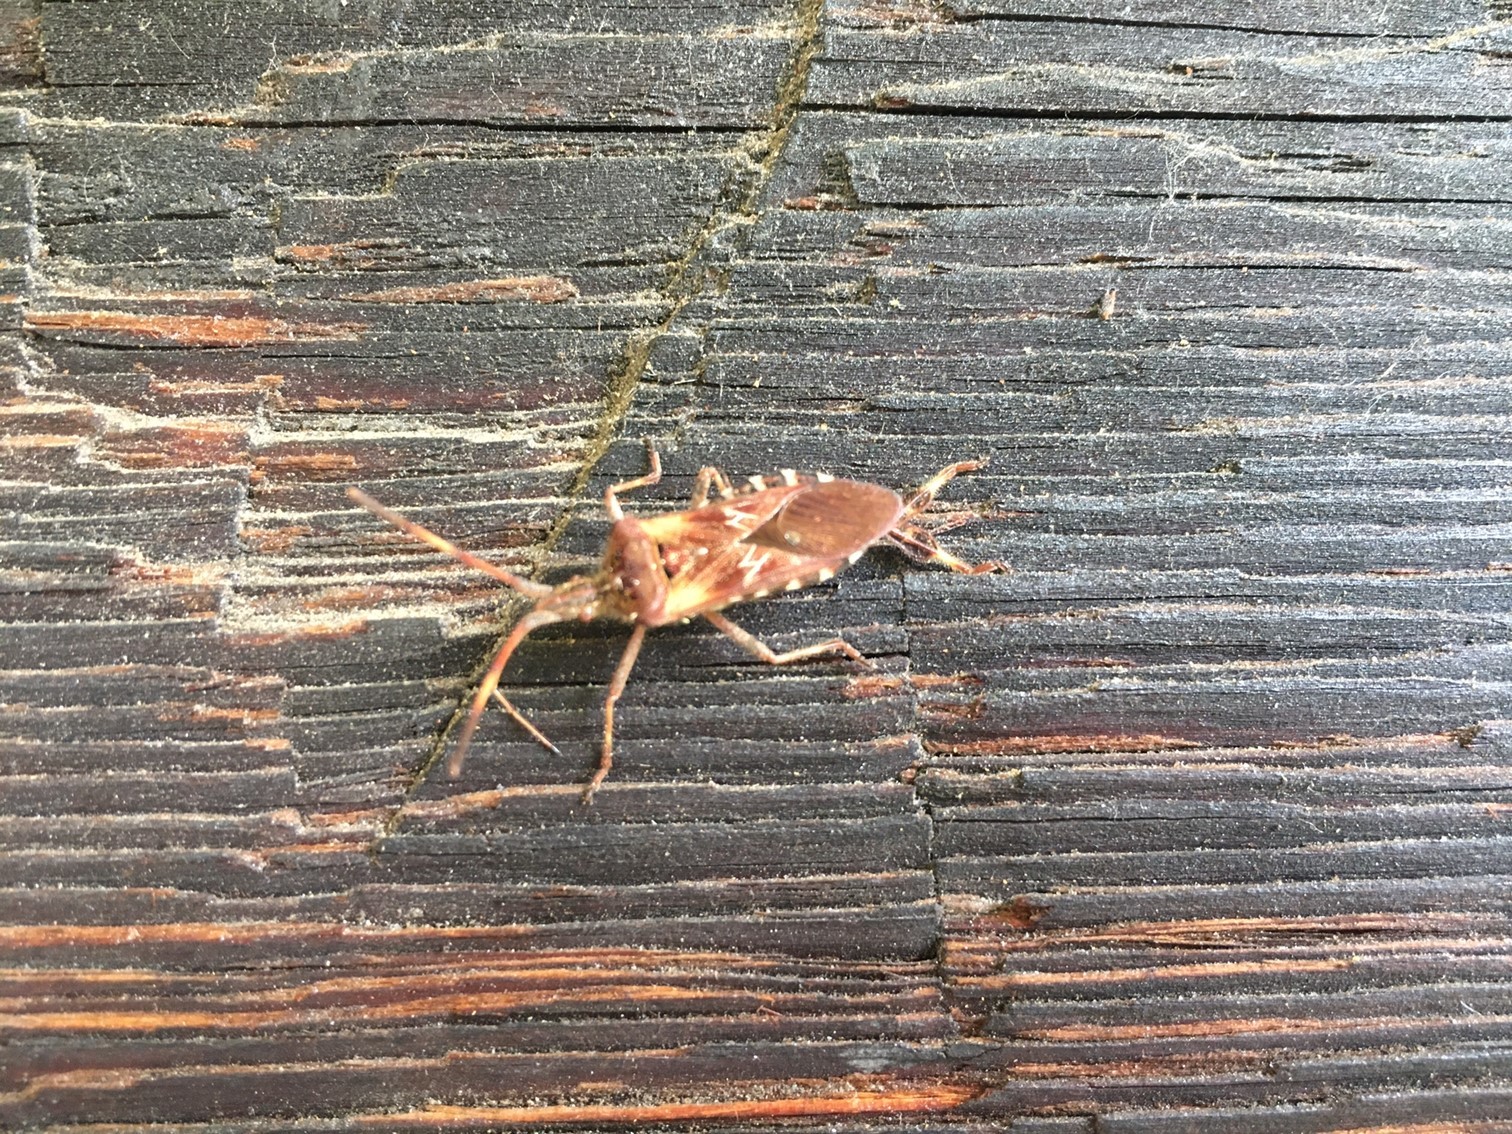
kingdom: Animalia
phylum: Arthropoda
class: Insecta
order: Hemiptera
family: Coreidae
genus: Leptoglossus
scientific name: Leptoglossus occidentalis
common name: Western conifer-seed bug
